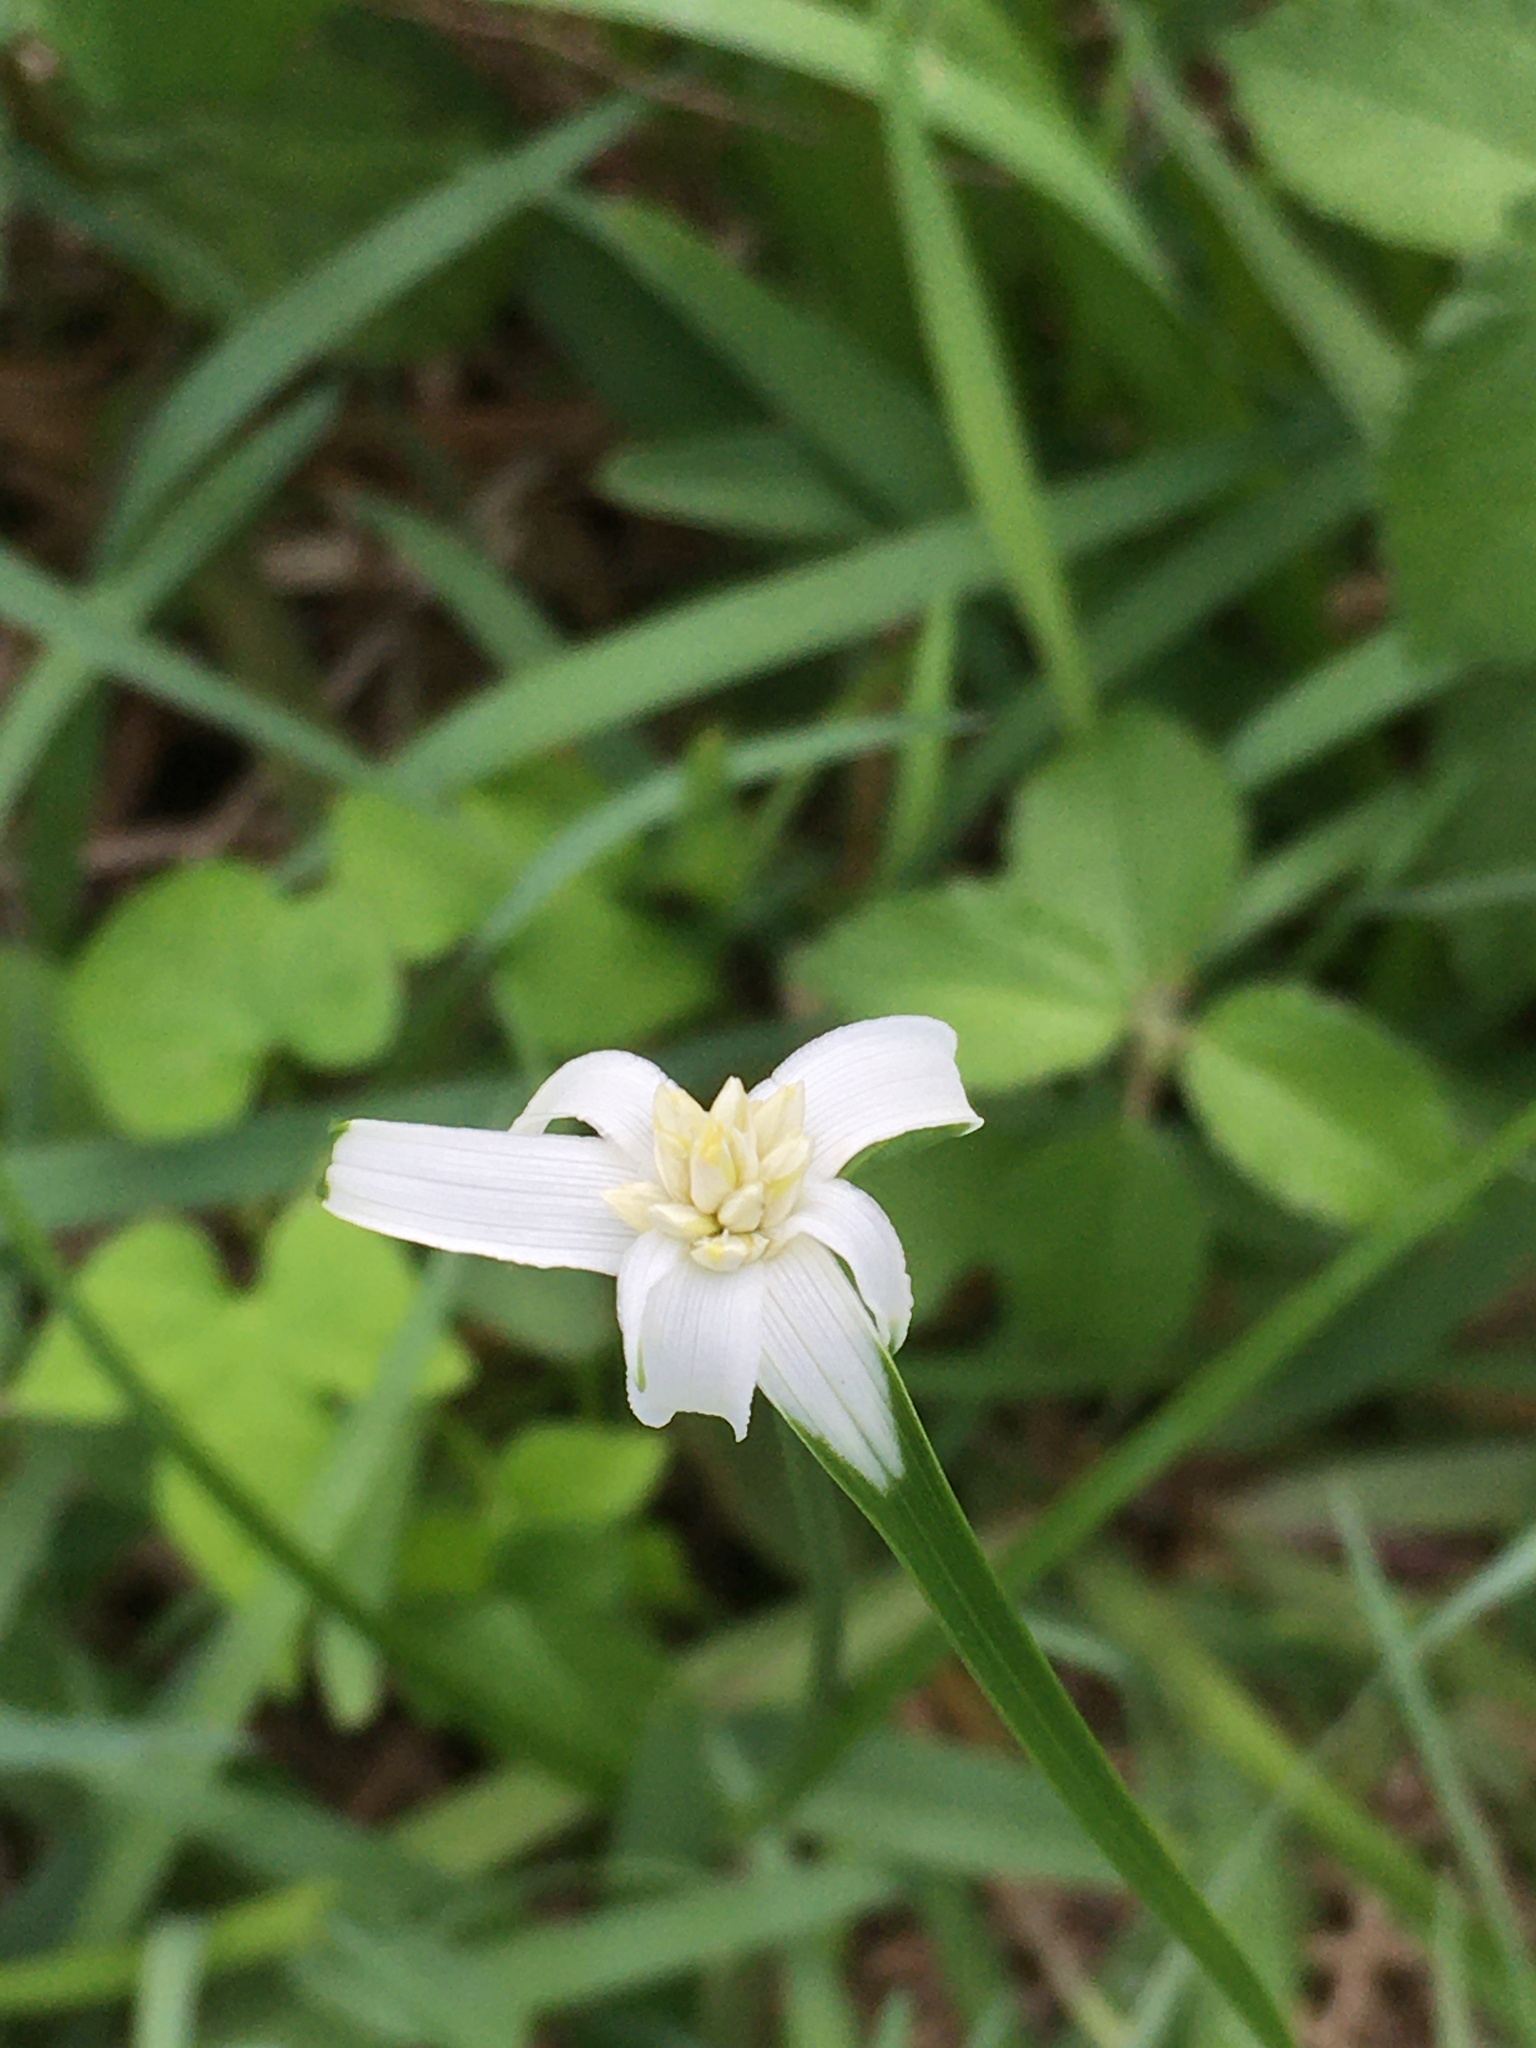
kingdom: Plantae
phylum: Tracheophyta
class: Liliopsida
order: Poales
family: Cyperaceae
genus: Rhynchospora
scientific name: Rhynchospora colorata
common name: Star sedge
